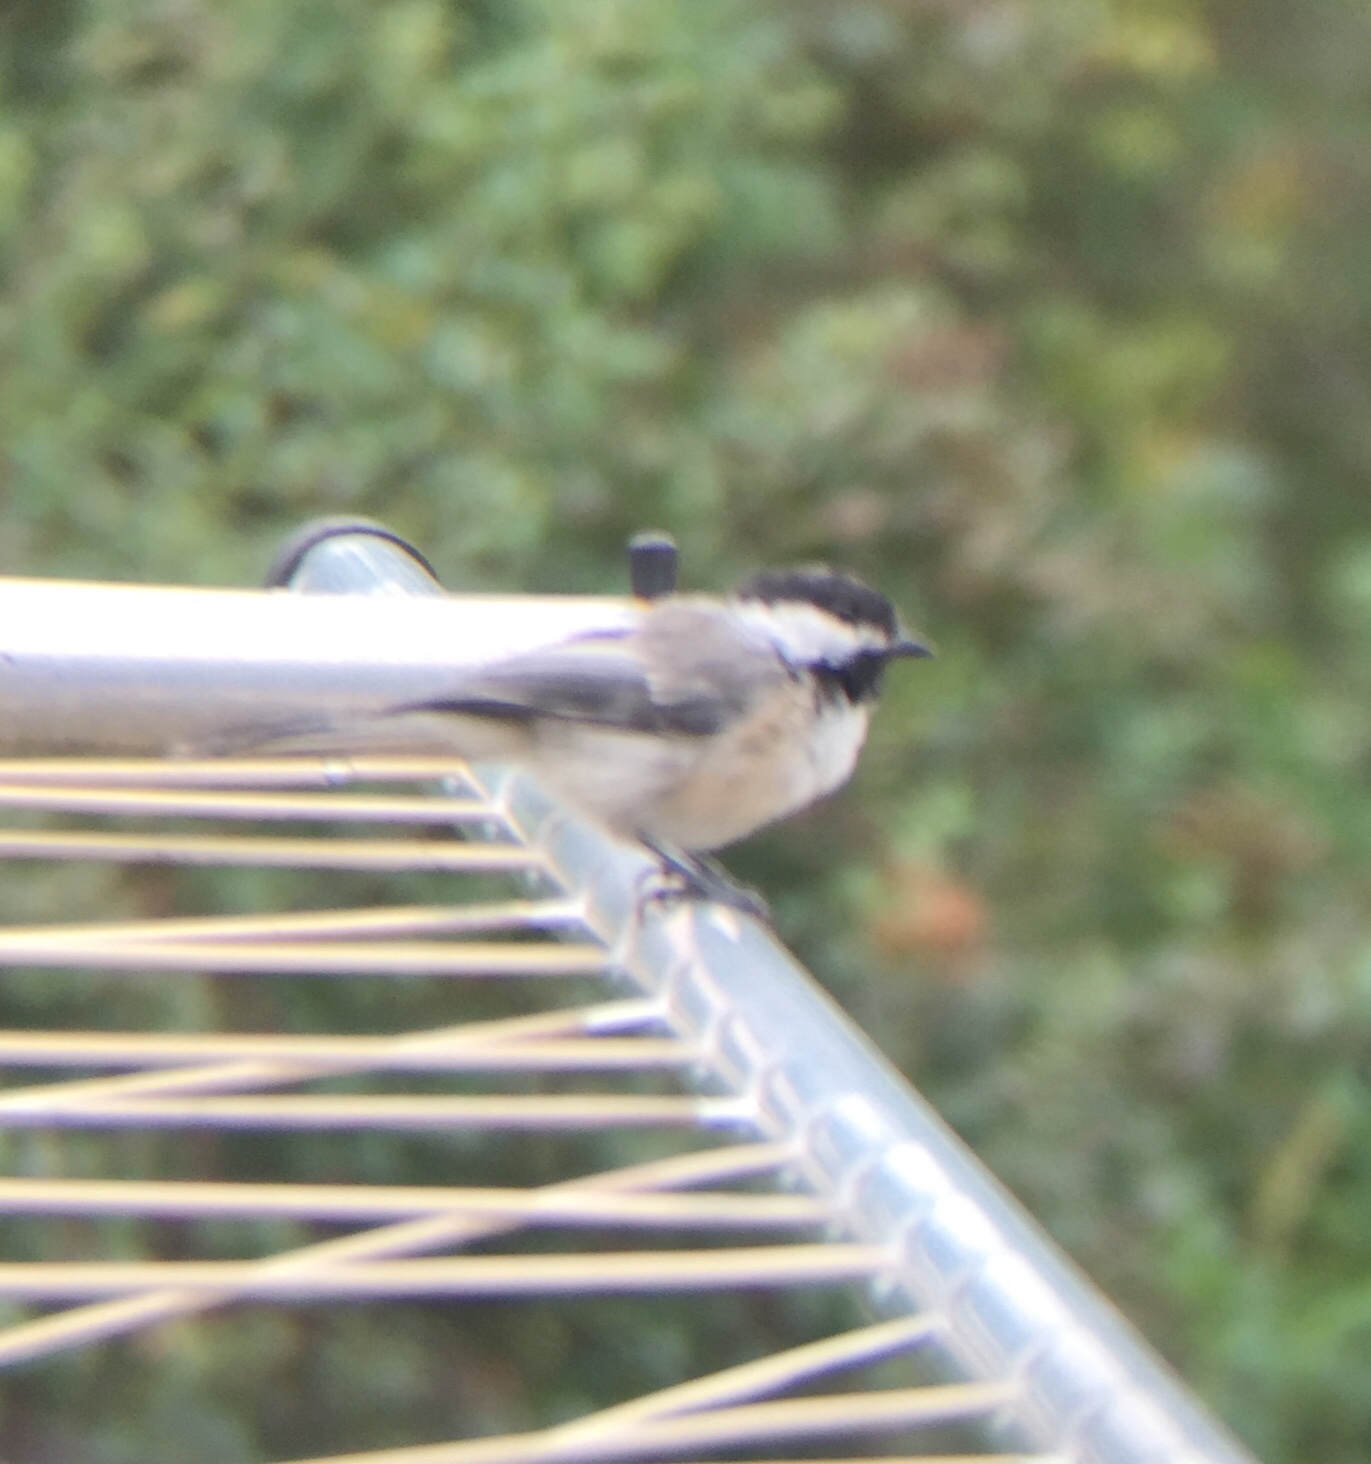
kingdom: Animalia
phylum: Chordata
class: Aves
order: Passeriformes
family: Paridae
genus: Poecile
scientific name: Poecile atricapillus
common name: Black-capped chickadee
